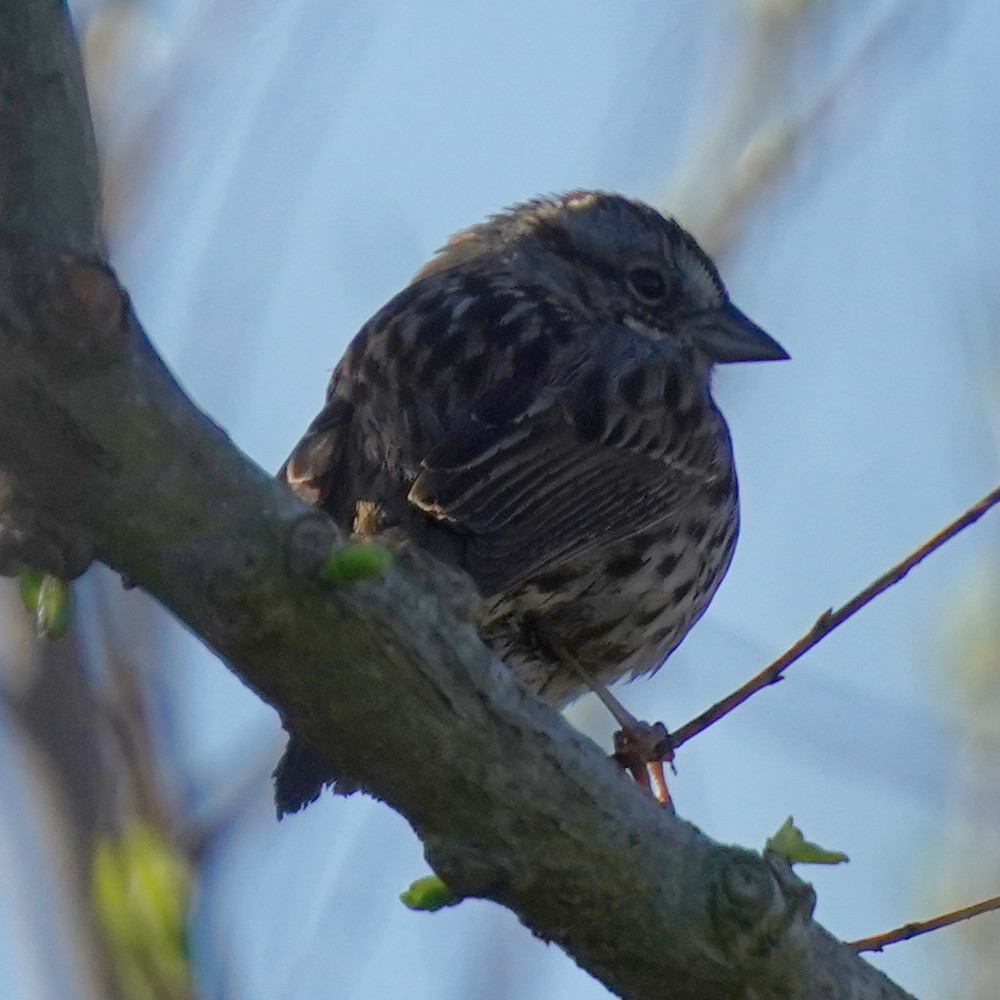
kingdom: Animalia
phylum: Chordata
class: Aves
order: Passeriformes
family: Passerellidae
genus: Melospiza
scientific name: Melospiza melodia
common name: Song sparrow
